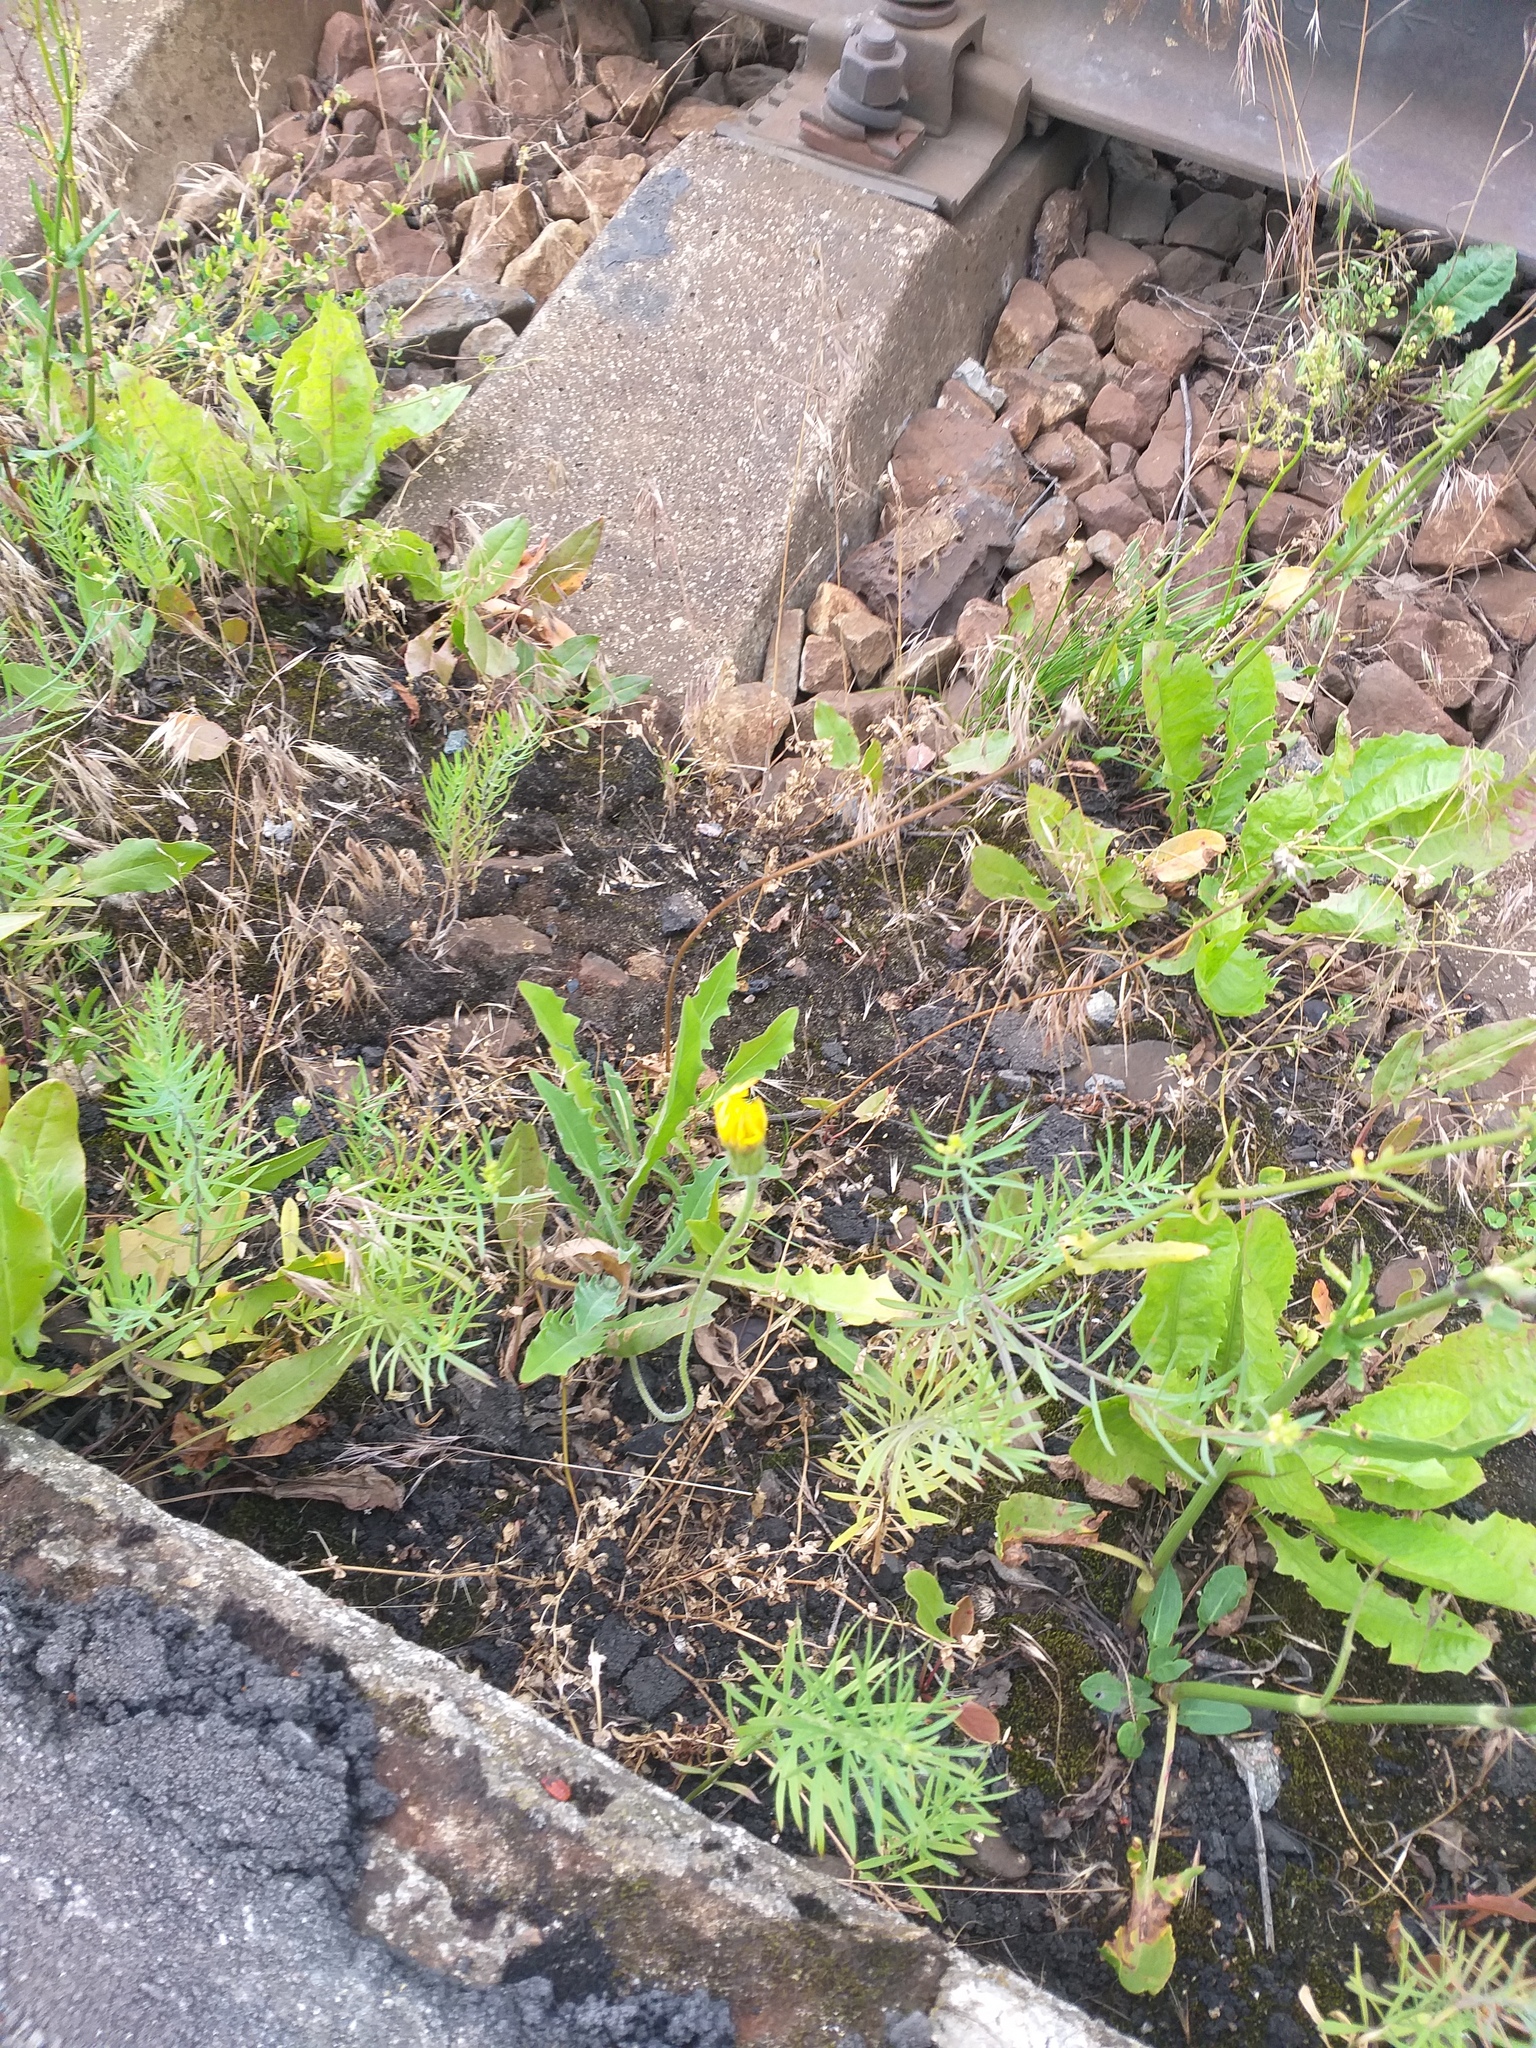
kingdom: Plantae
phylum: Tracheophyta
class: Magnoliopsida
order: Asterales
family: Asteraceae
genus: Leontodon
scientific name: Leontodon hispidus
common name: Rough hawkbit
